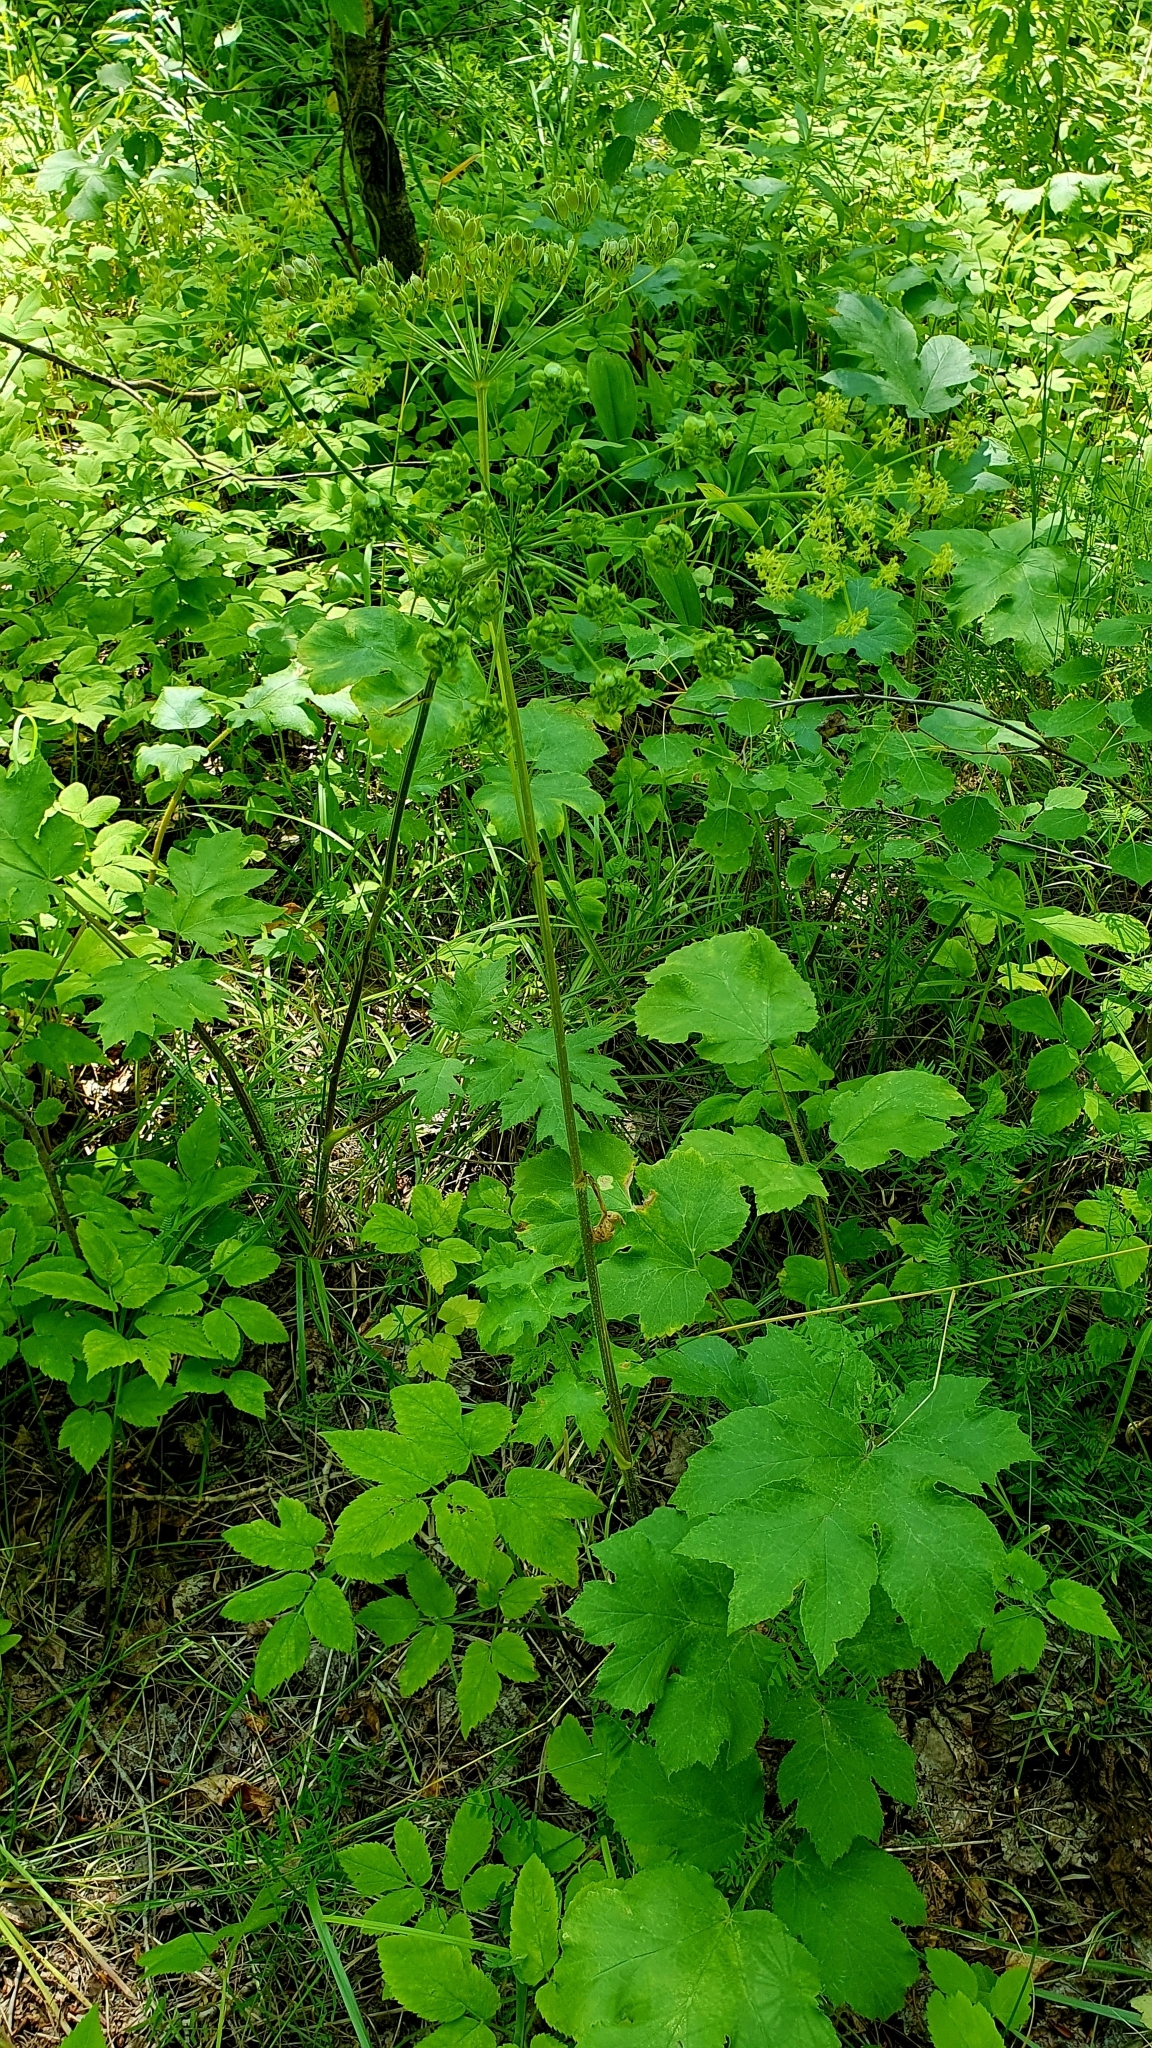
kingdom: Plantae
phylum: Tracheophyta
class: Magnoliopsida
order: Apiales
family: Apiaceae
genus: Heracleum
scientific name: Heracleum sphondylium
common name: Hogweed
